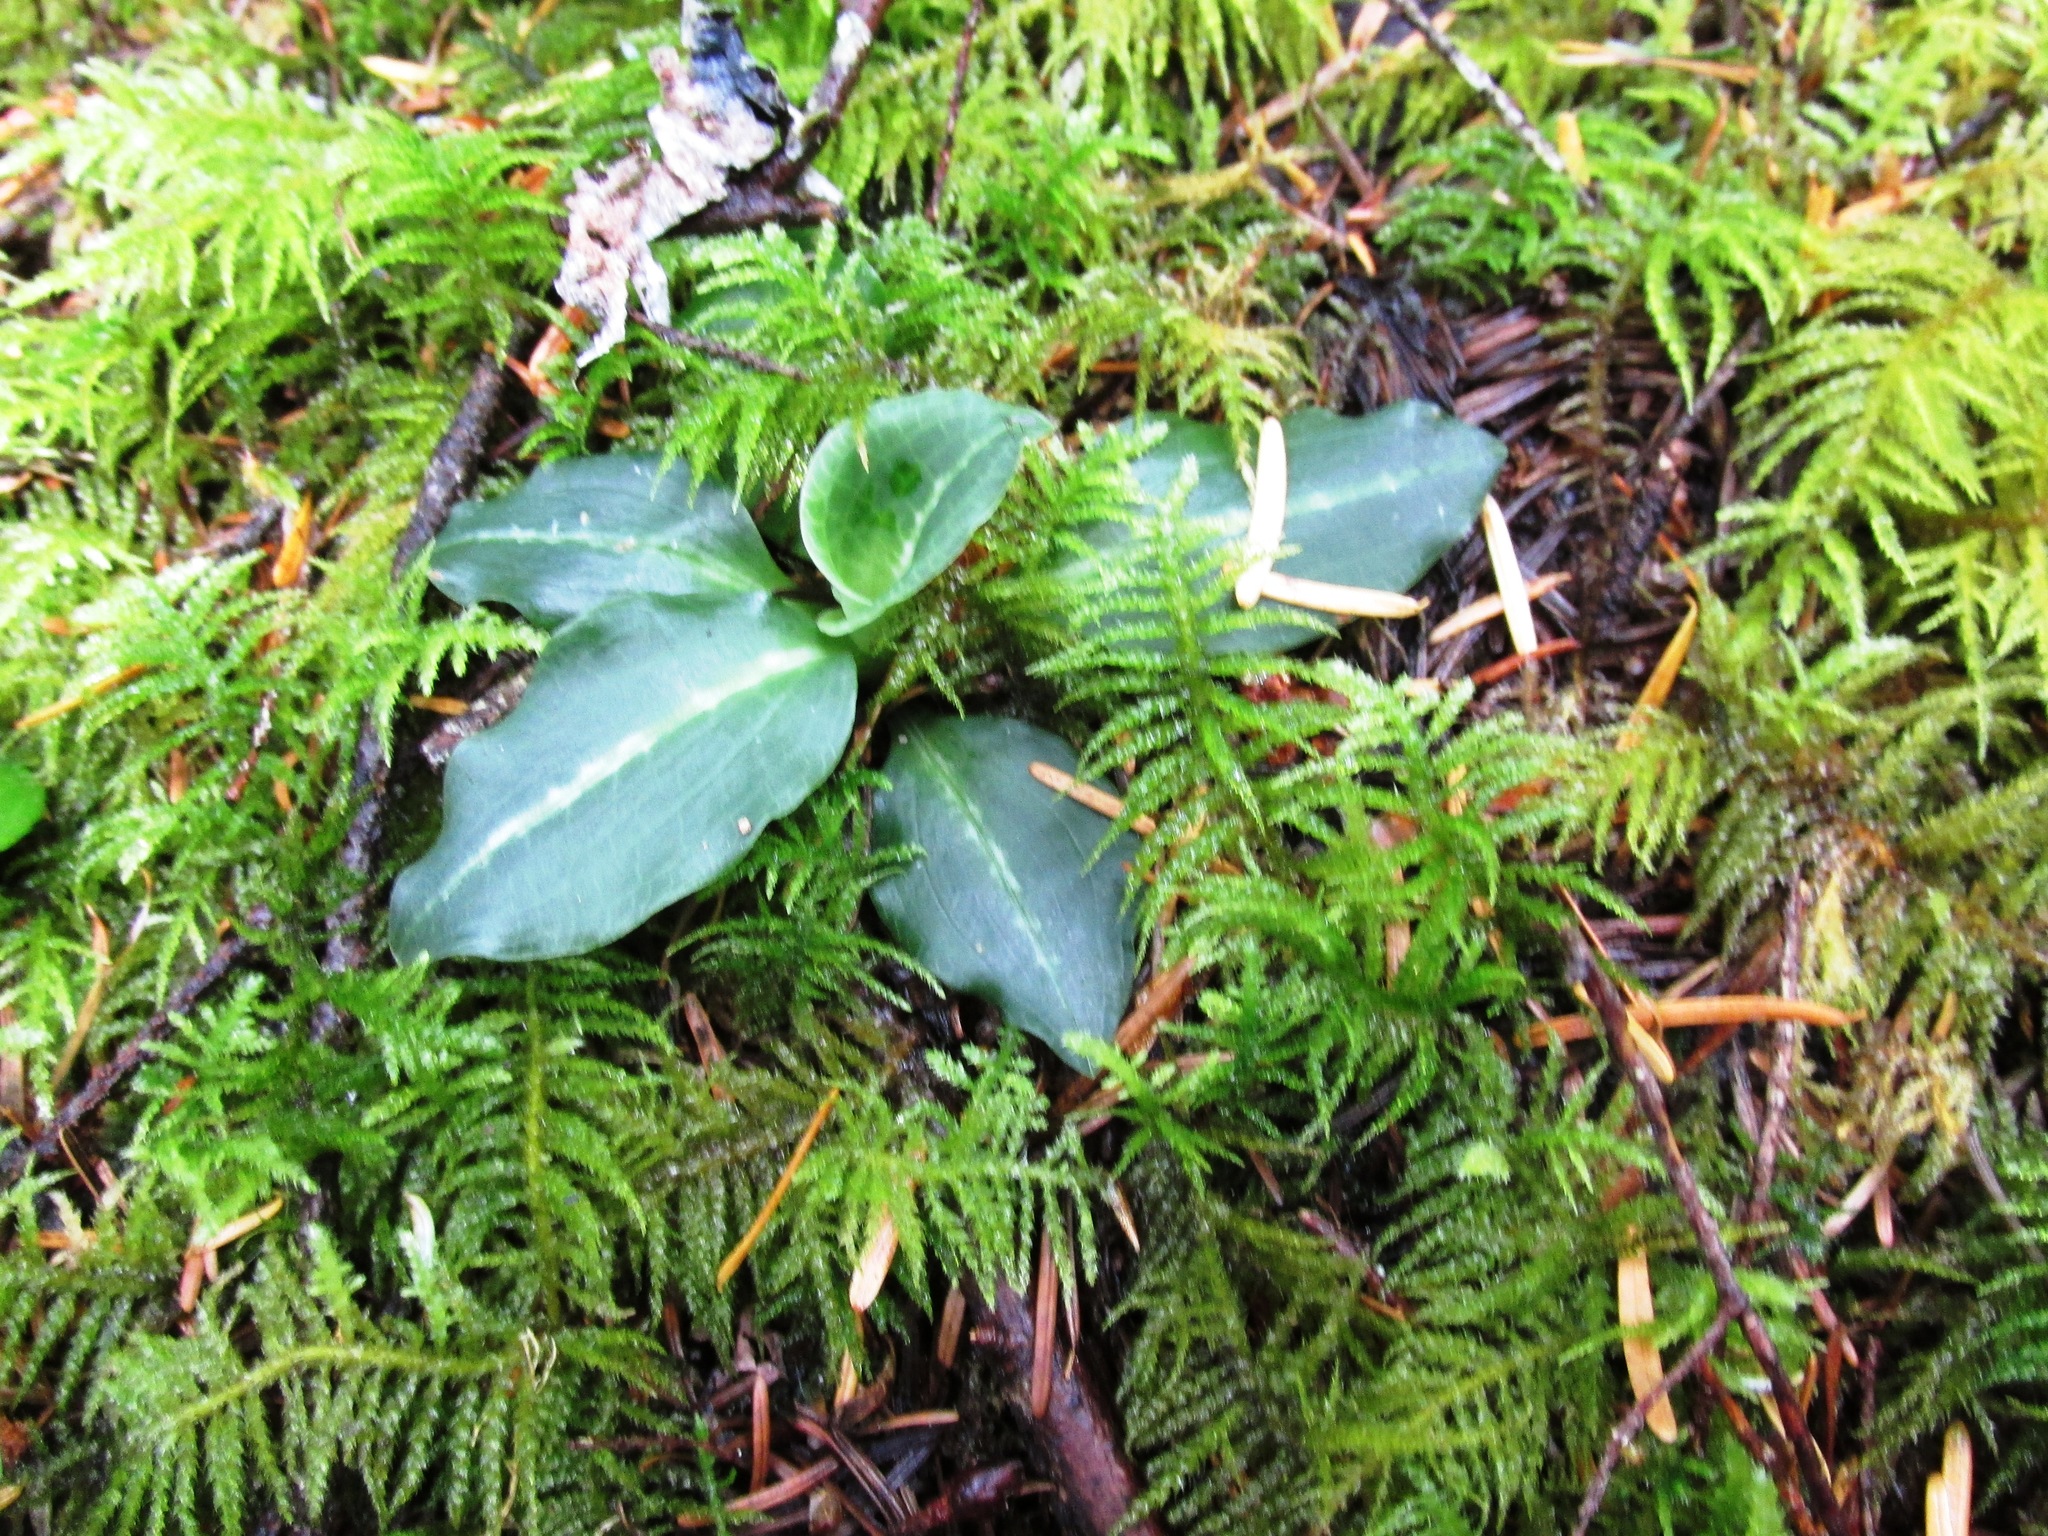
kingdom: Plantae
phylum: Tracheophyta
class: Liliopsida
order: Asparagales
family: Orchidaceae
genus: Goodyera
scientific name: Goodyera oblongifolia
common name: Giant rattlesnake-plantain
